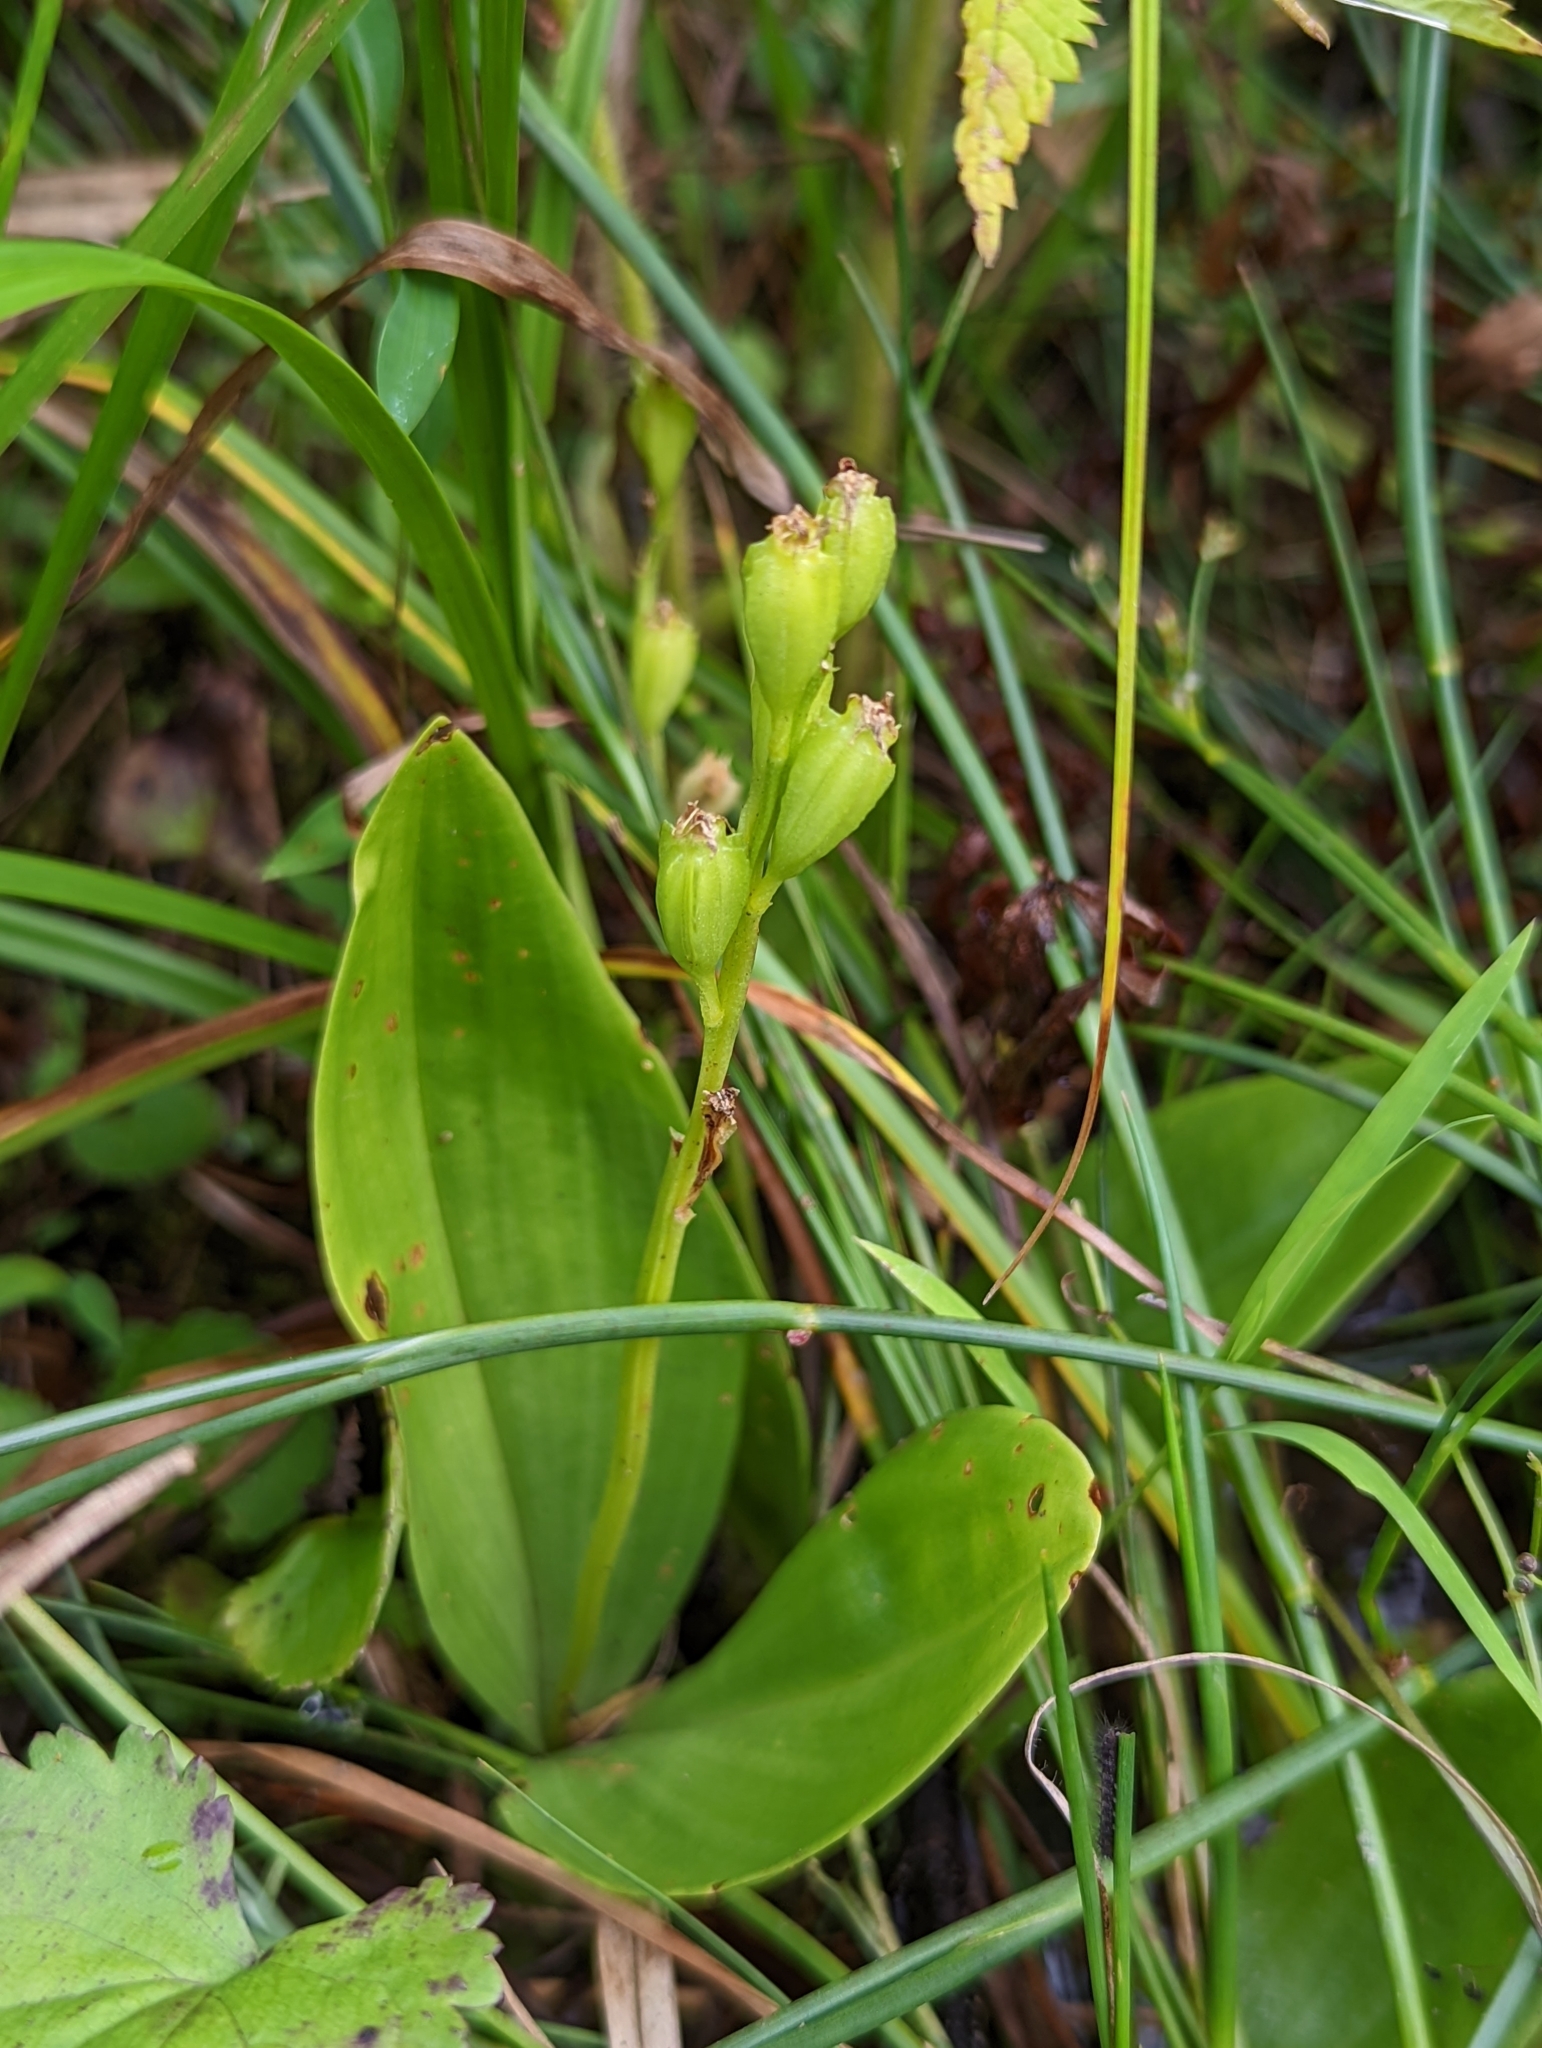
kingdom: Animalia
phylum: Arthropoda
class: Insecta
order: Coleoptera
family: Curculionidae
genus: Liparis
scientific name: Liparis loeselii
